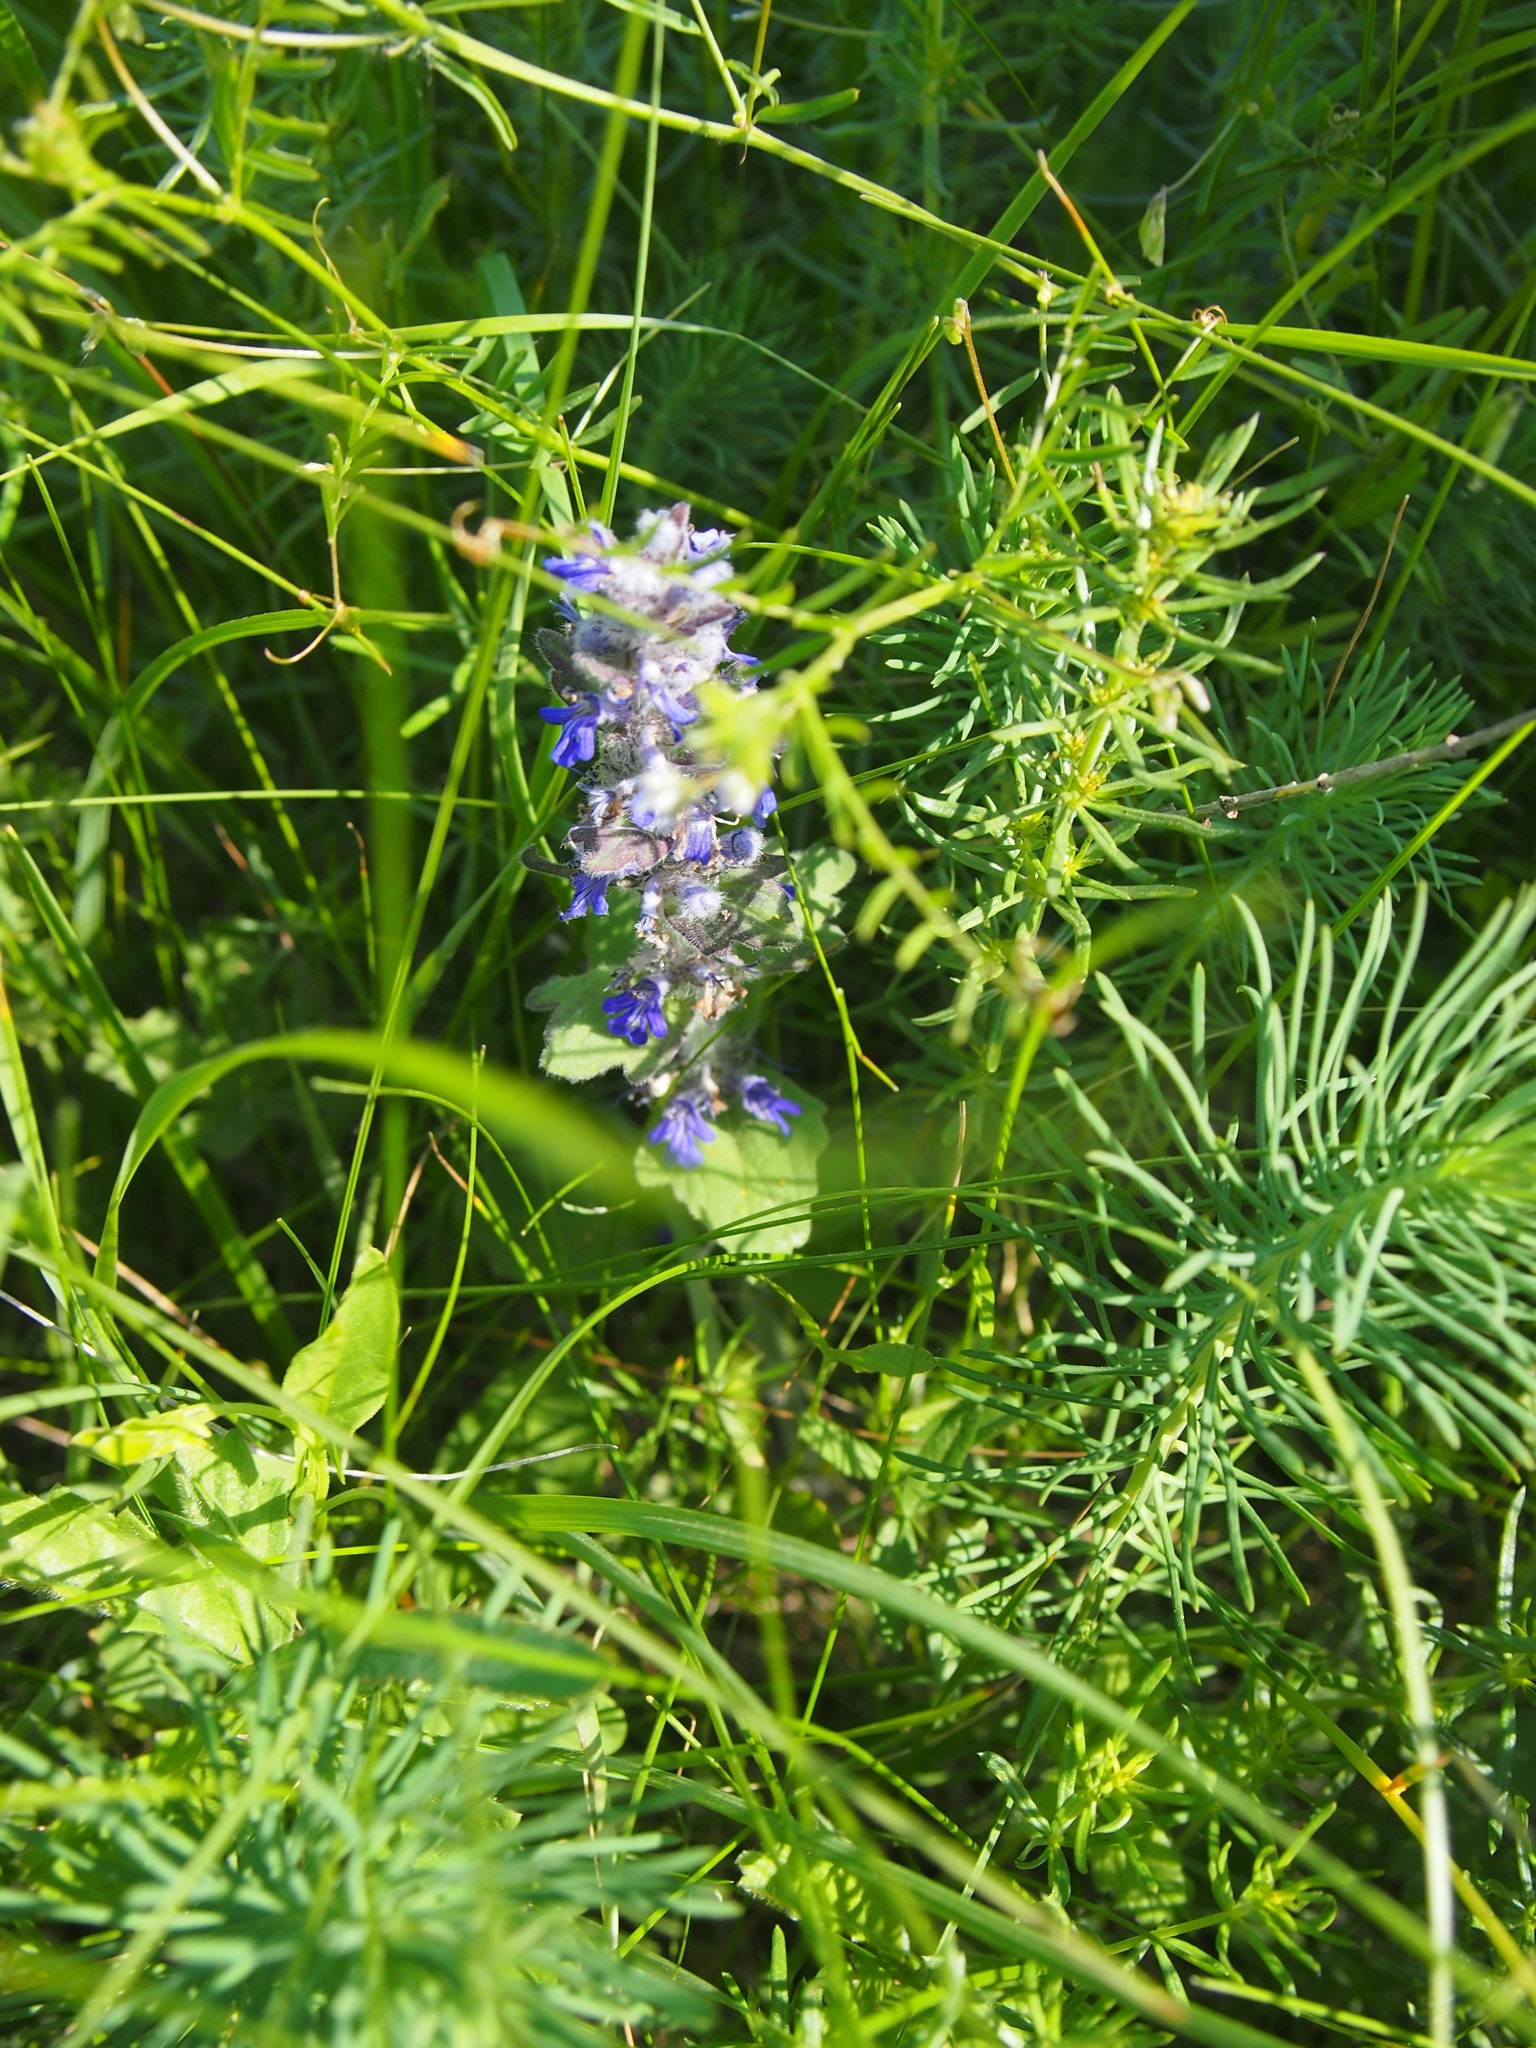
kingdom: Plantae
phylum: Tracheophyta
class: Magnoliopsida
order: Lamiales
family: Lamiaceae
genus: Ajuga
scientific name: Ajuga genevensis
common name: Blue bugle
